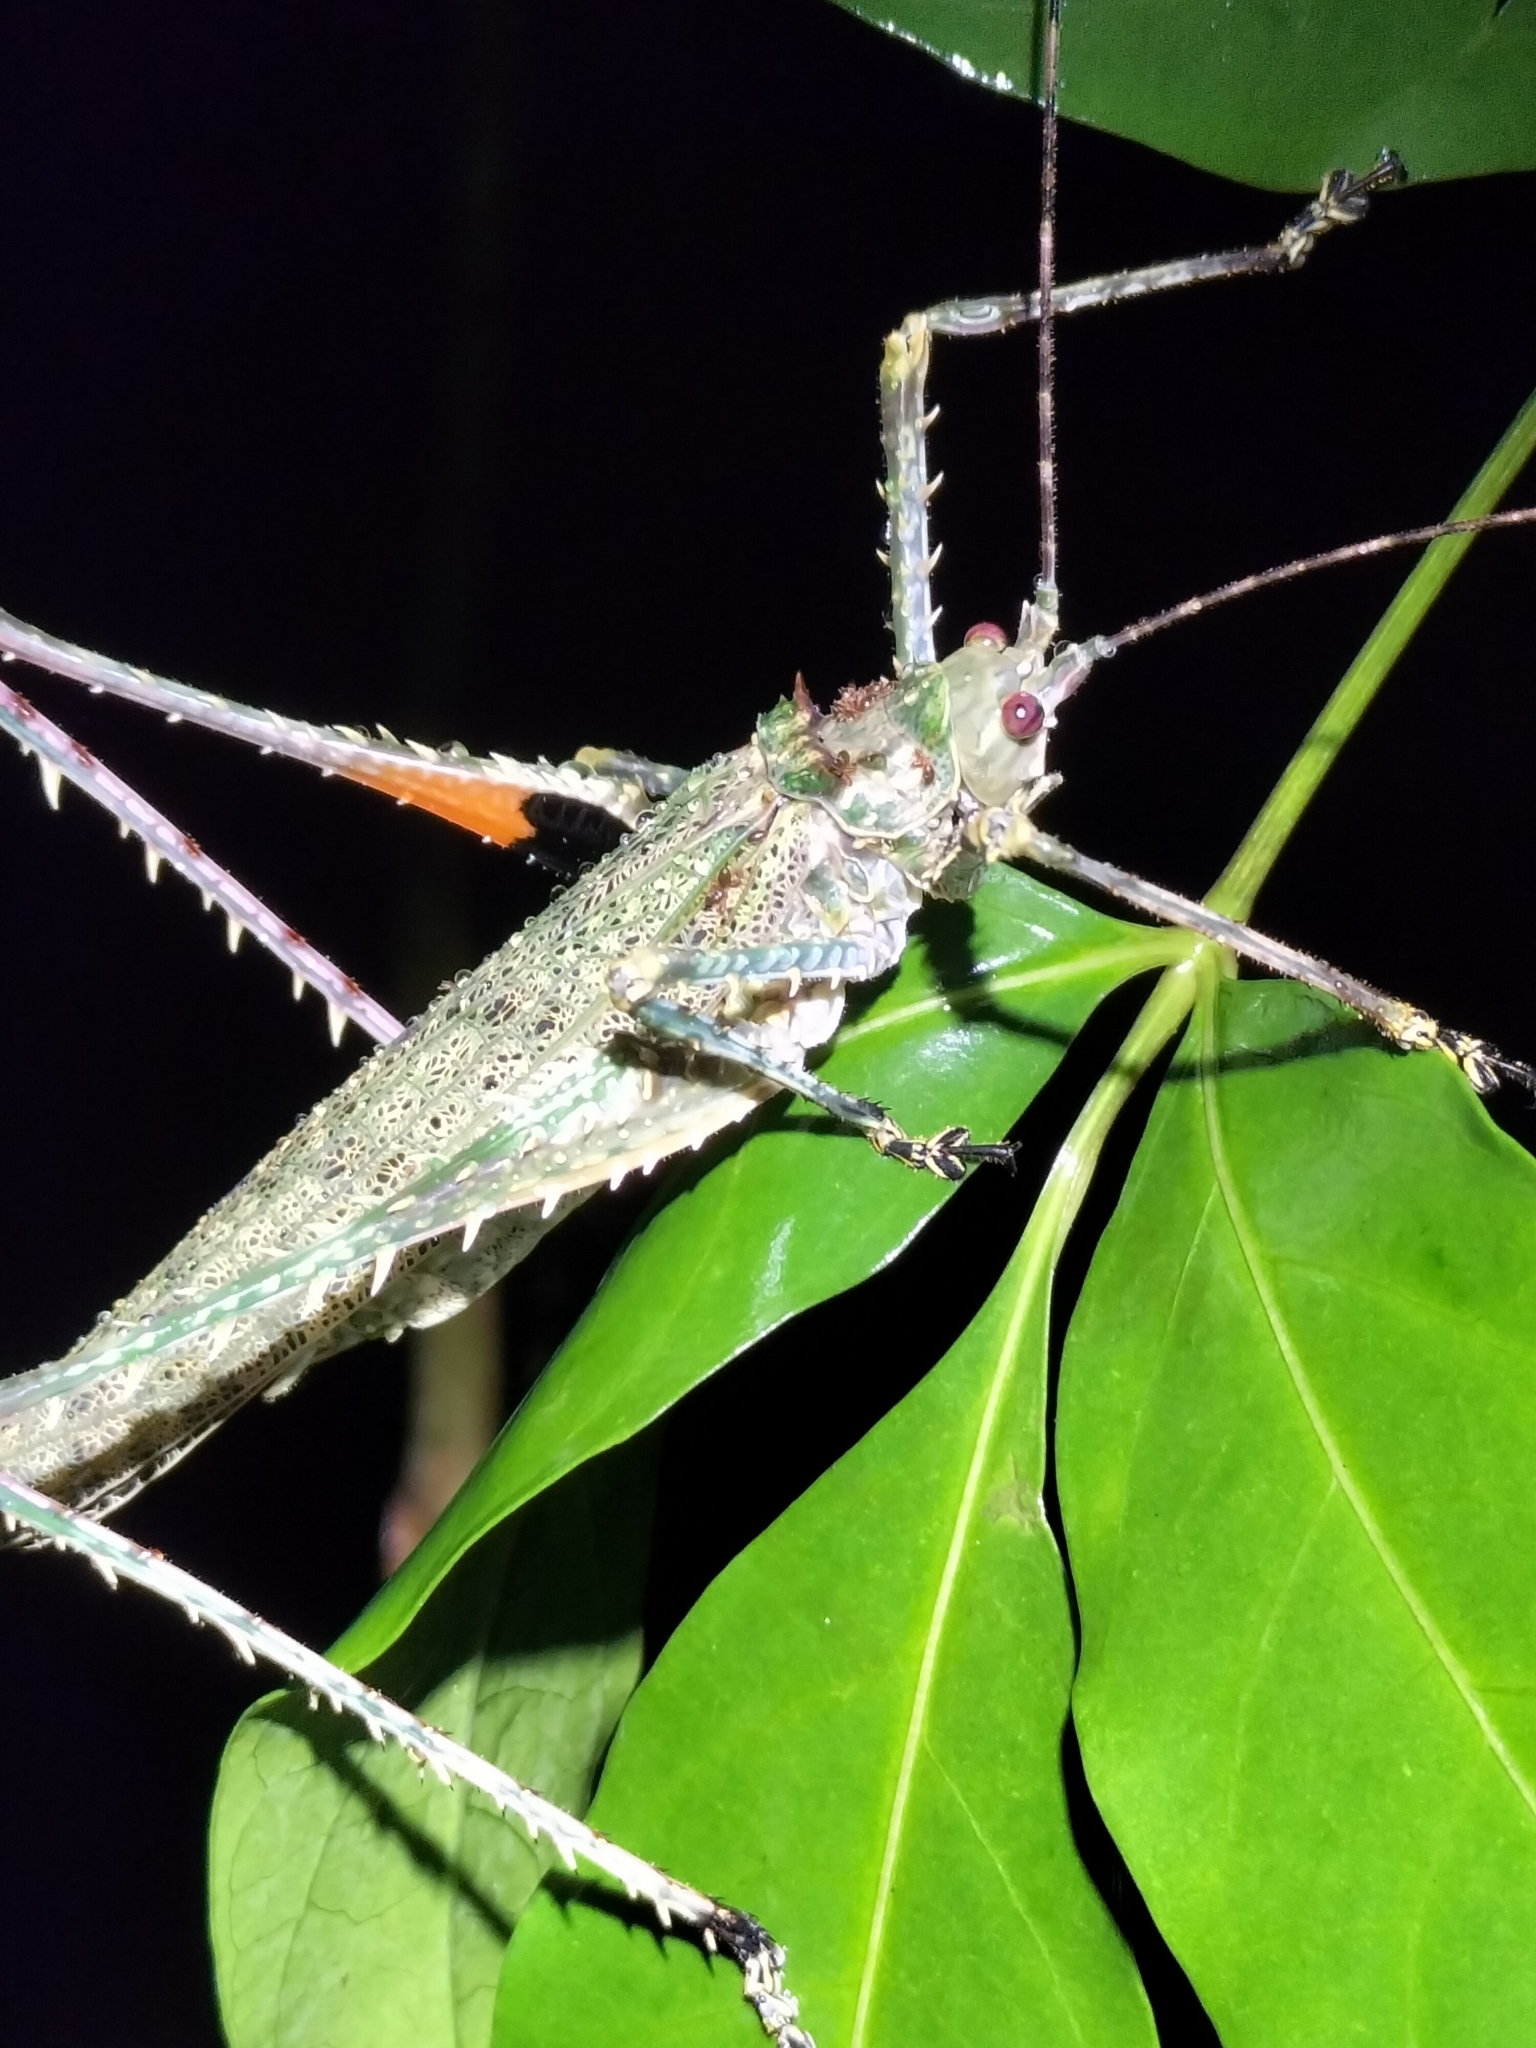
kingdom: Animalia
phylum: Arthropoda
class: Insecta
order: Orthoptera
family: Tettigoniidae
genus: Phricta
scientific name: Phricta spinosa
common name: Giant spiny forest katydid
